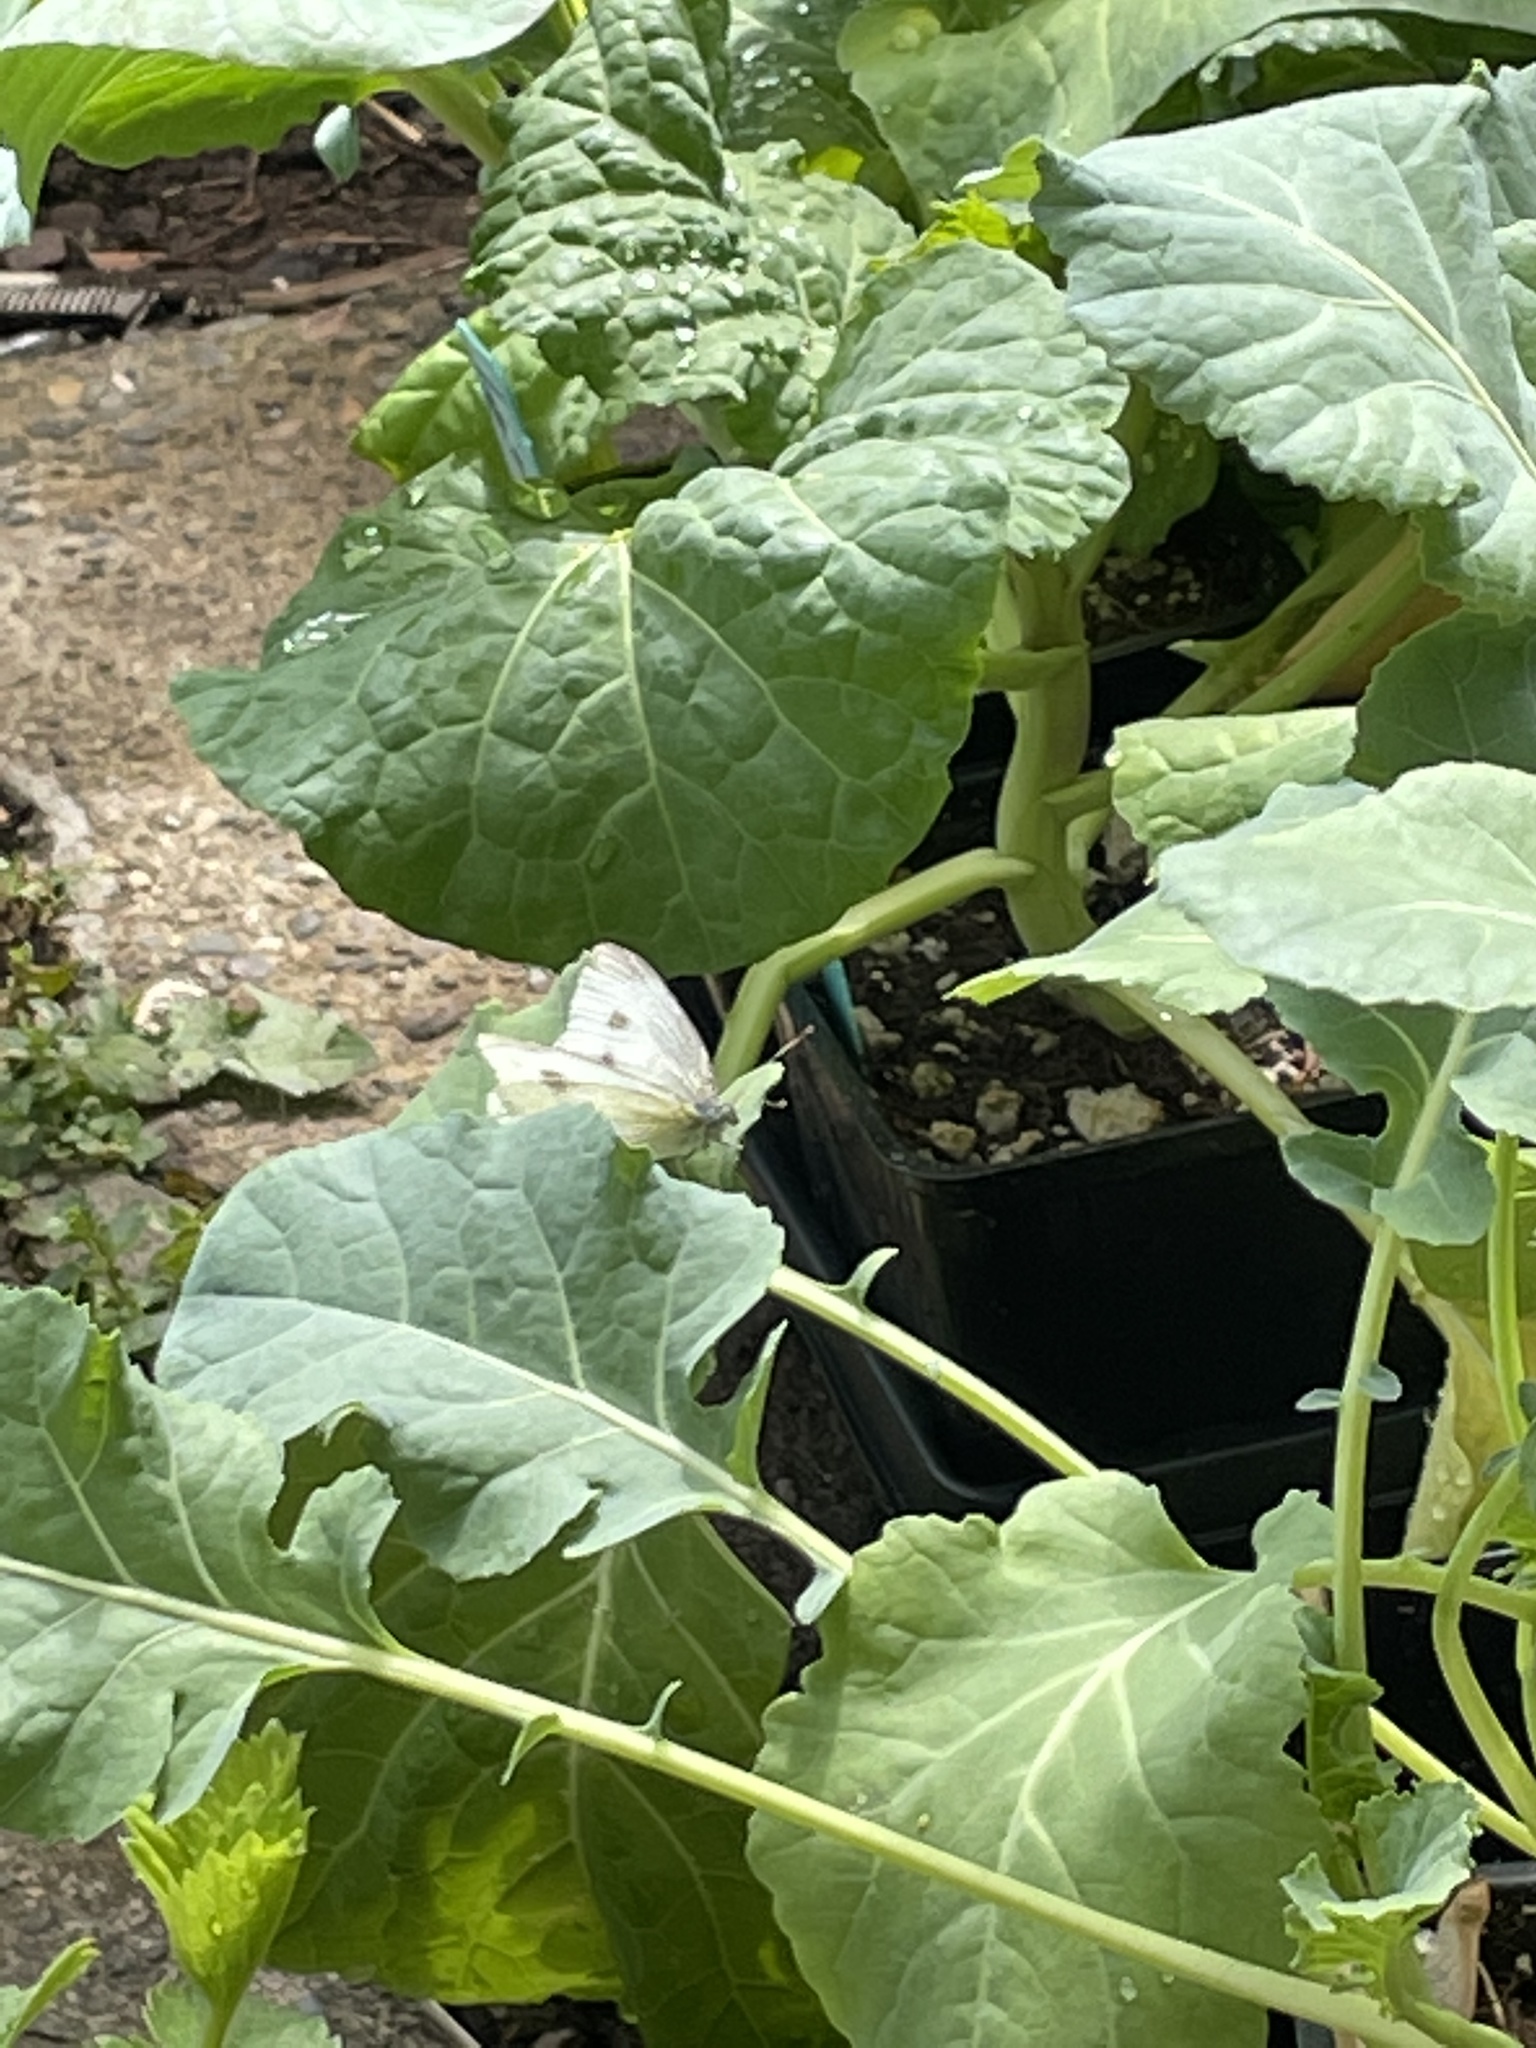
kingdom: Animalia
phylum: Arthropoda
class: Insecta
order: Lepidoptera
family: Pieridae
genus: Pieris
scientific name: Pieris rapae
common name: Small white
